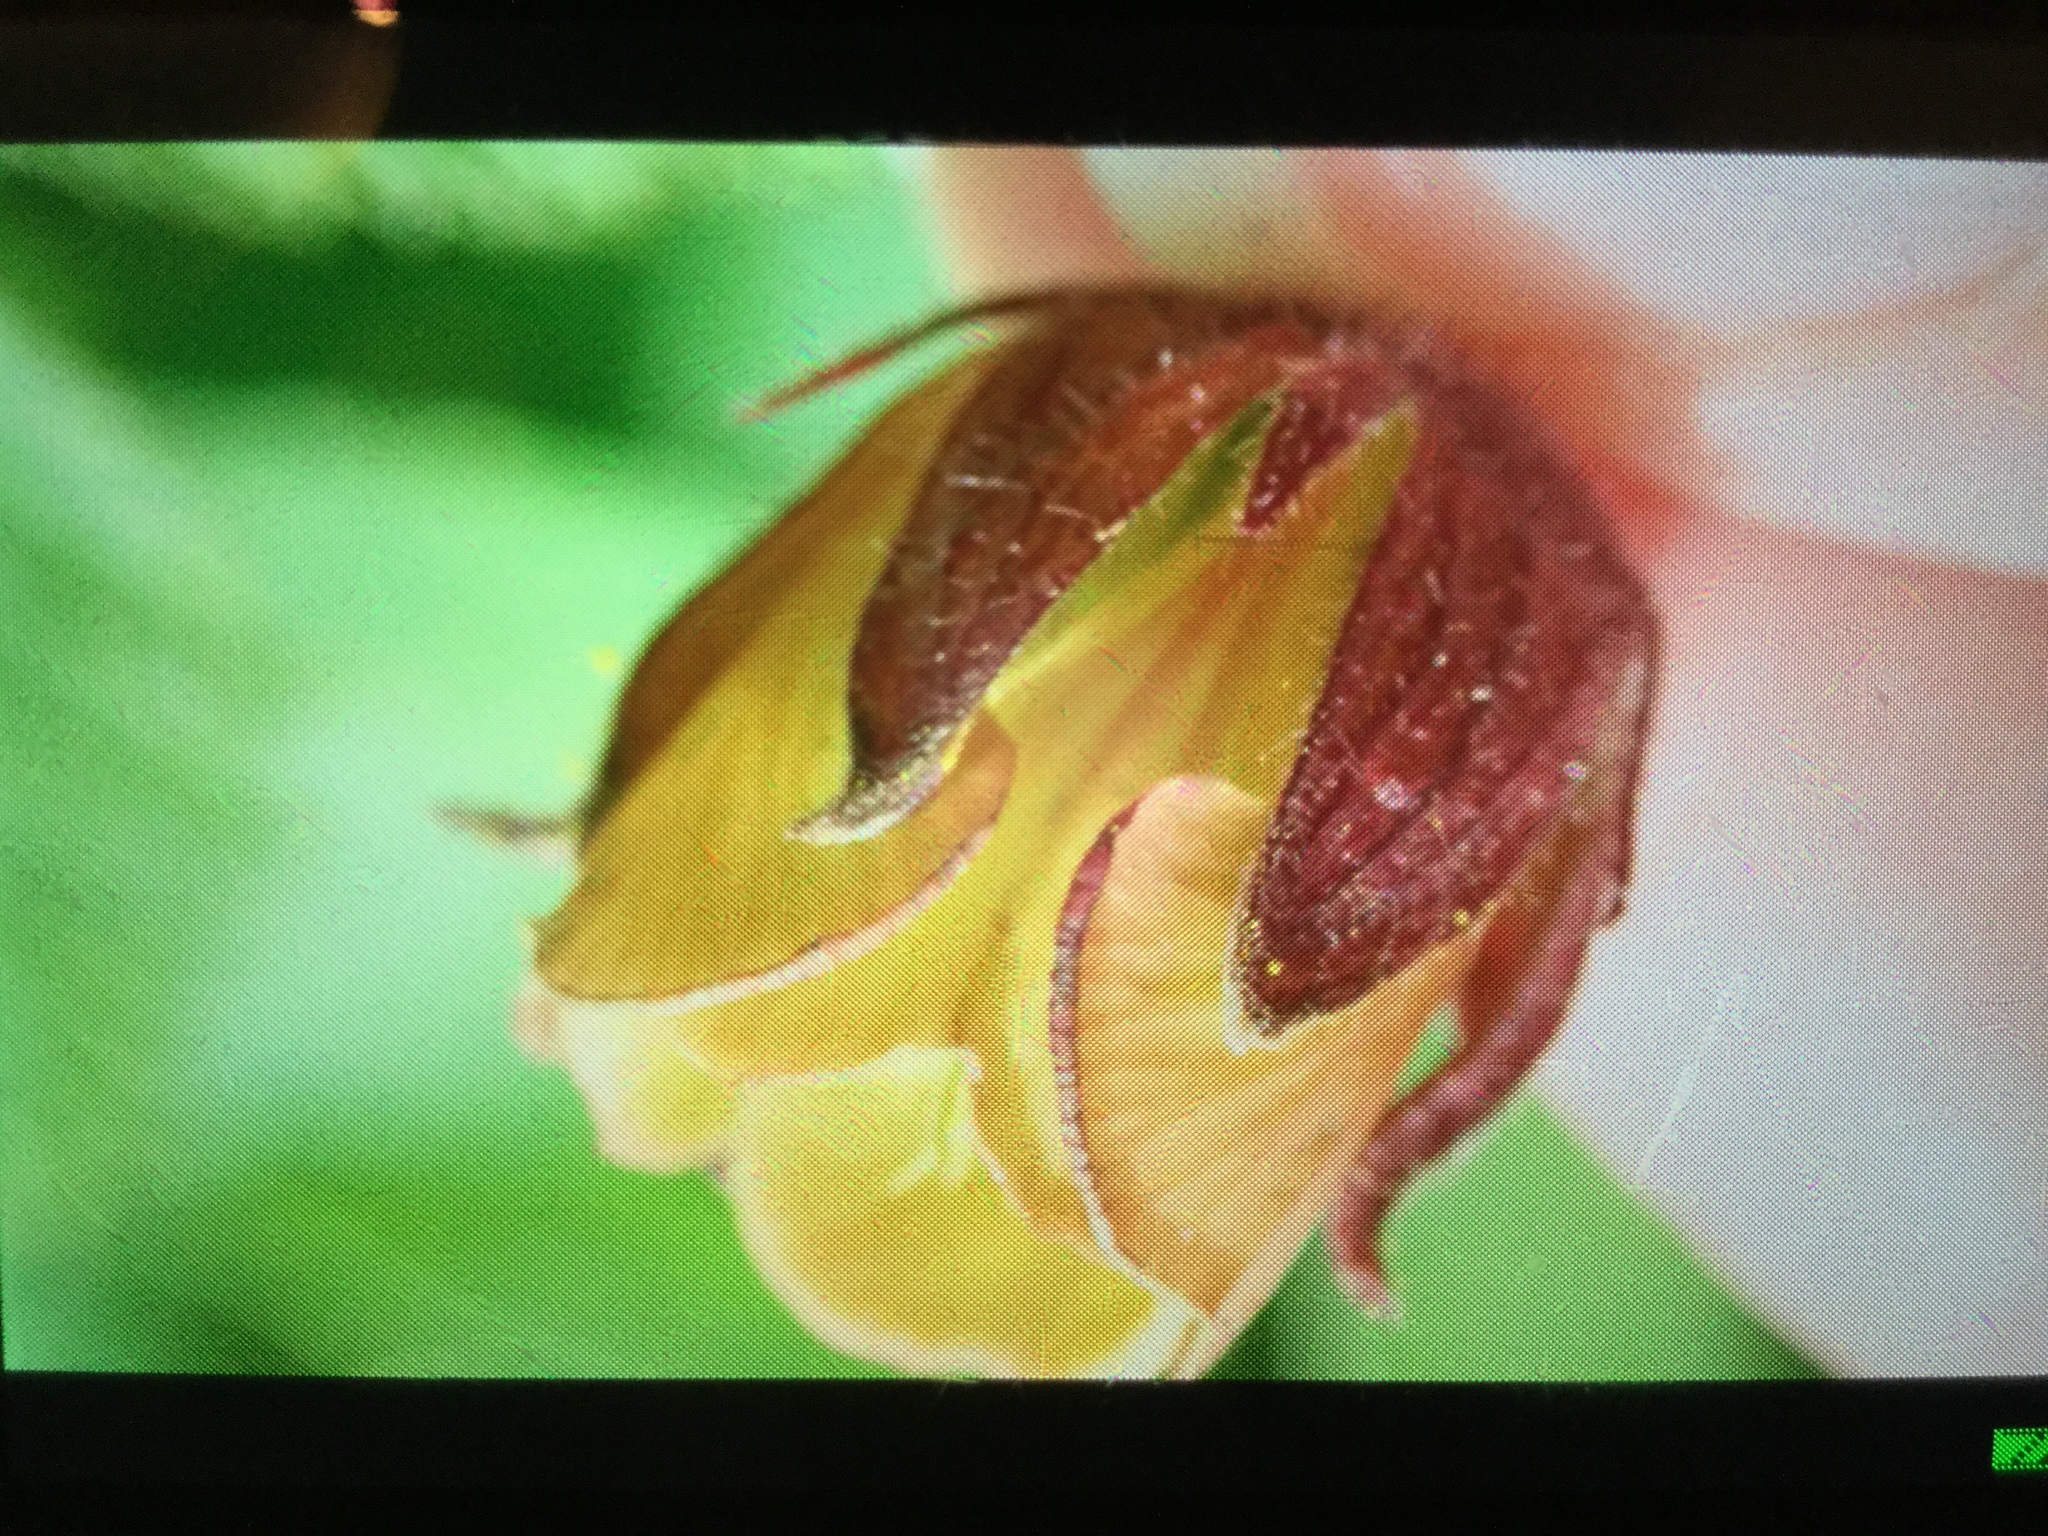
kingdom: Plantae
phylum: Tracheophyta
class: Magnoliopsida
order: Rosales
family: Rosaceae
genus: Geum
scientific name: Geum rivale
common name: Water avens
